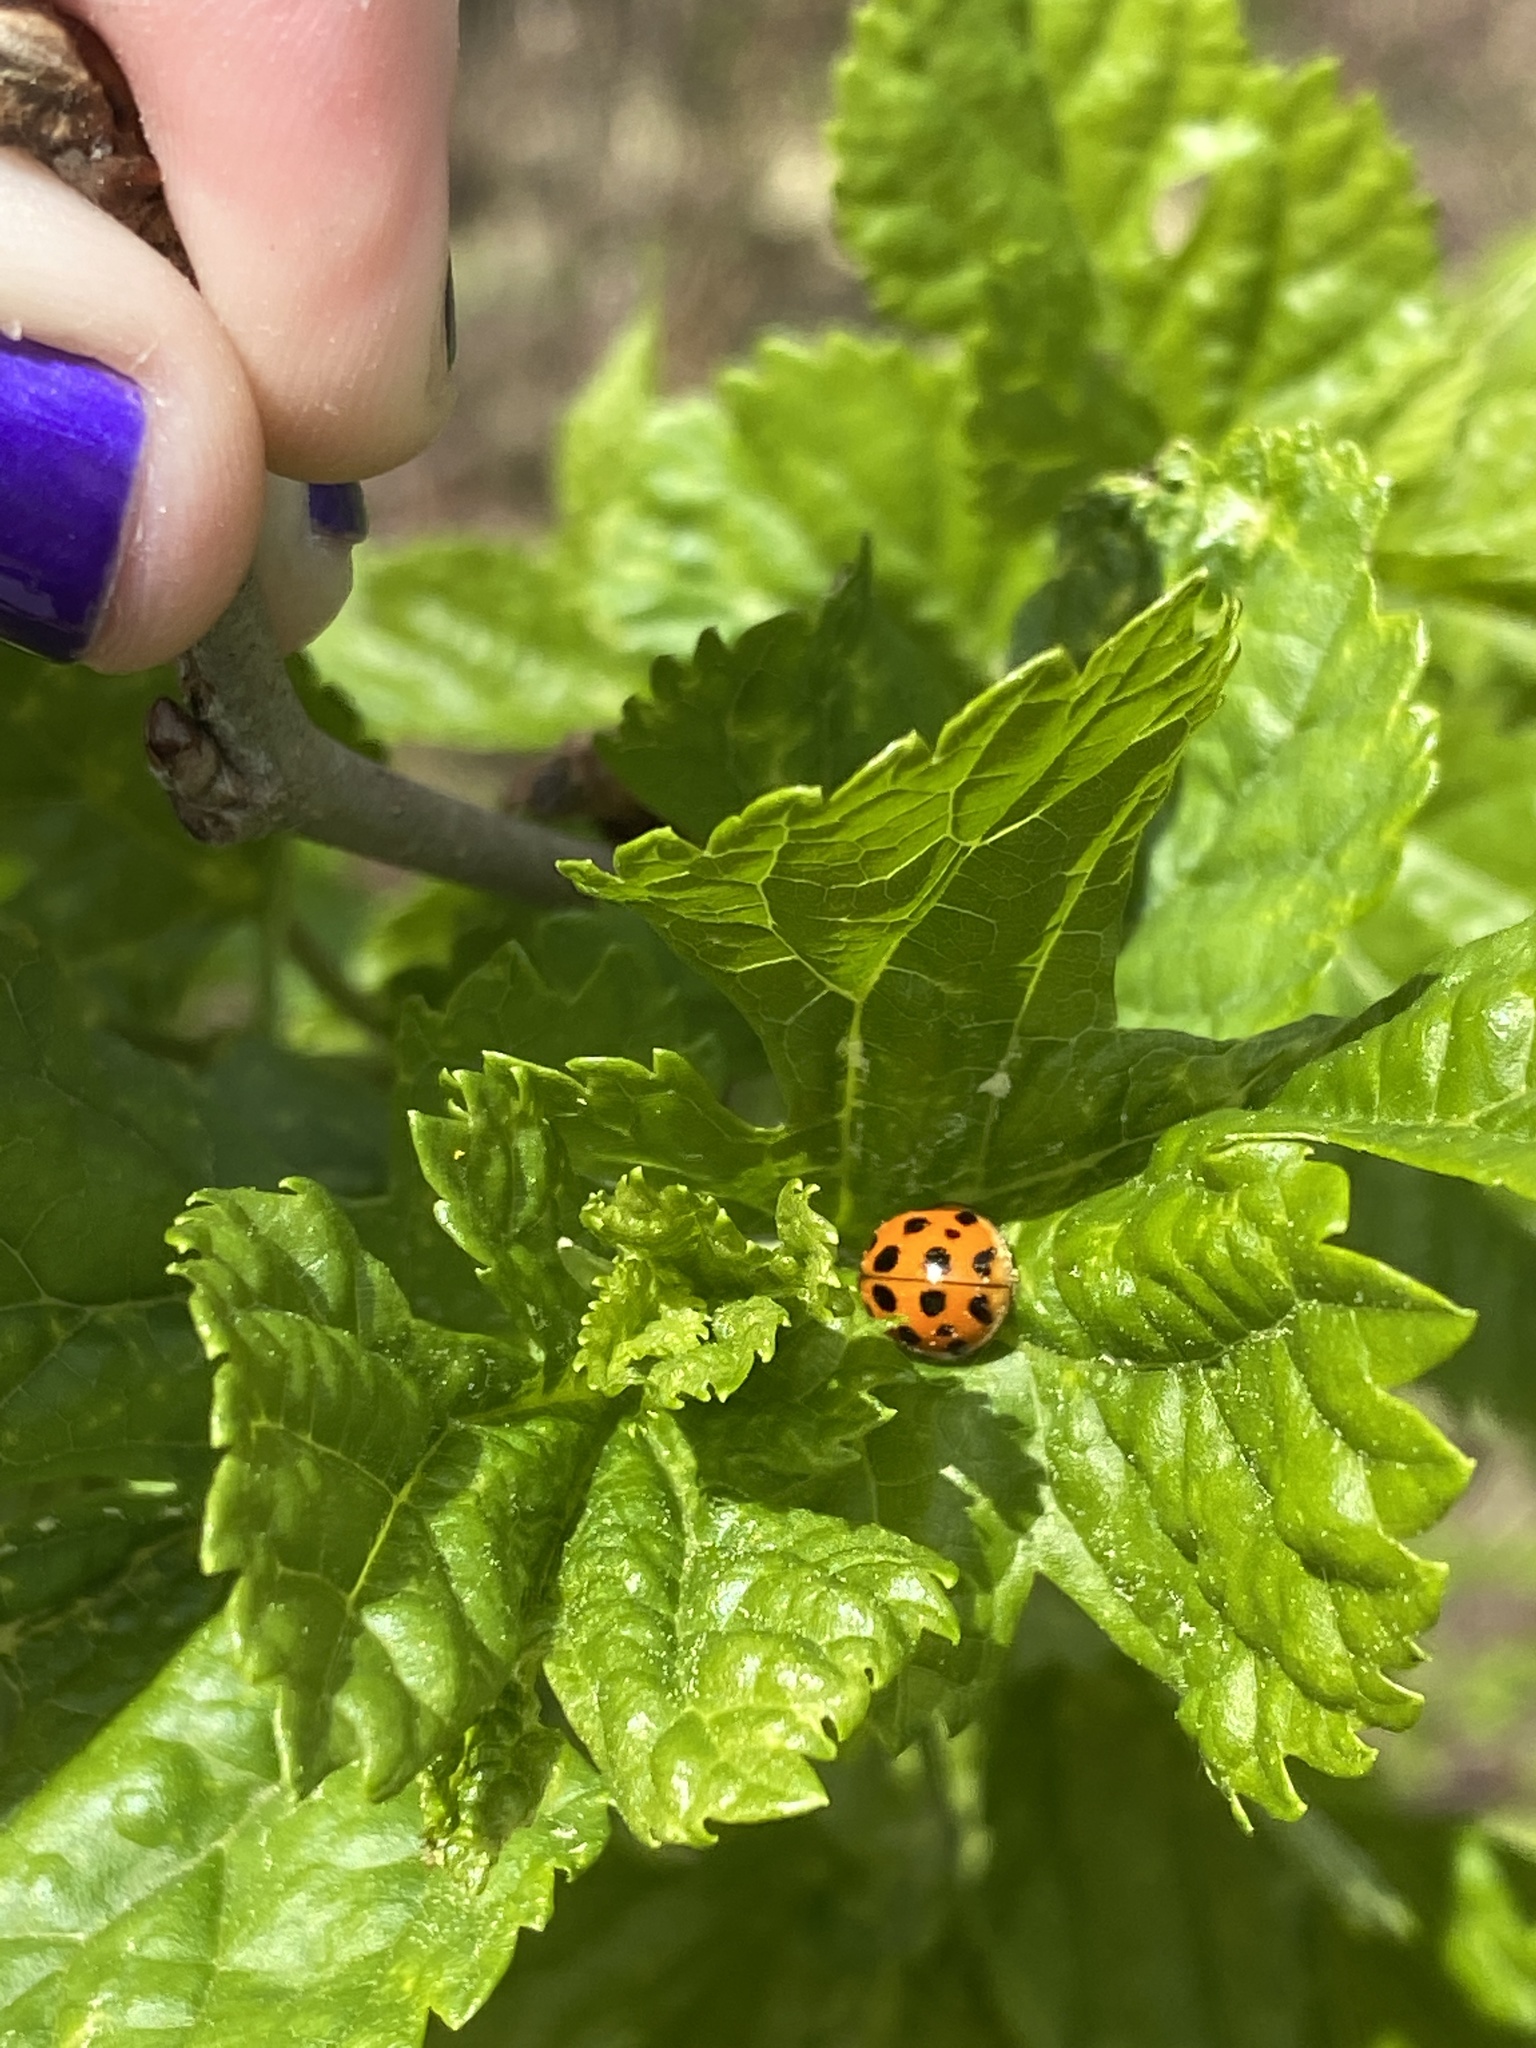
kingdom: Animalia
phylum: Arthropoda
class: Insecta
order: Coleoptera
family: Coccinellidae
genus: Harmonia
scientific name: Harmonia axyridis
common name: Harlequin ladybird
